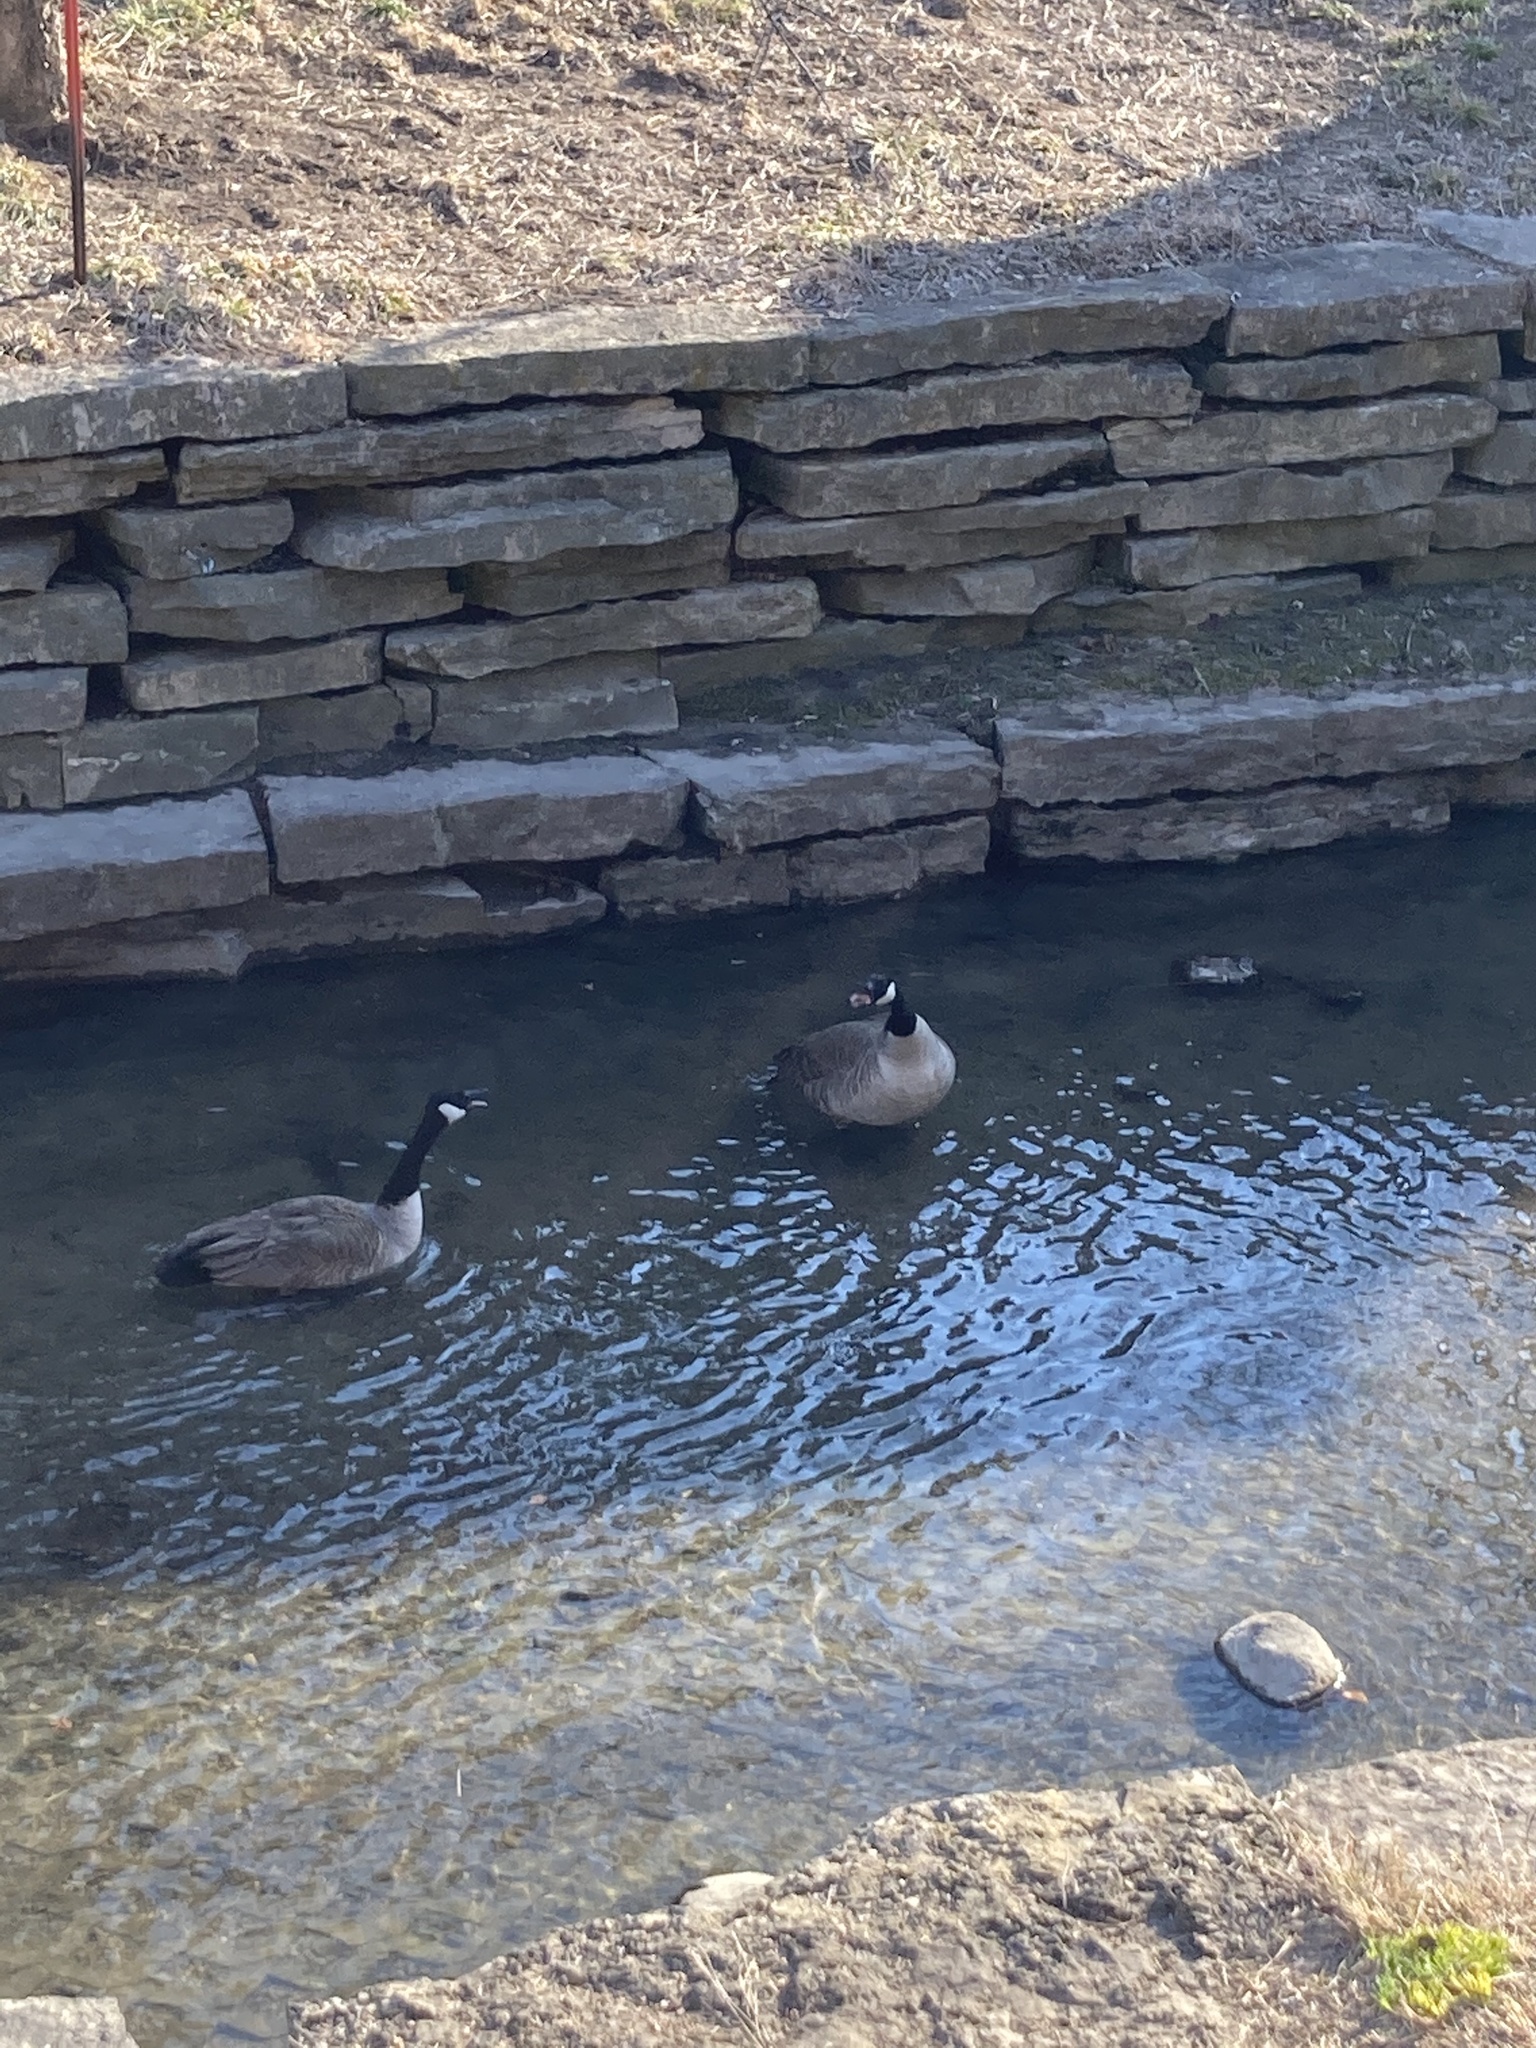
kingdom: Animalia
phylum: Chordata
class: Aves
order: Anseriformes
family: Anatidae
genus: Branta
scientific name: Branta canadensis
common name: Canada goose
